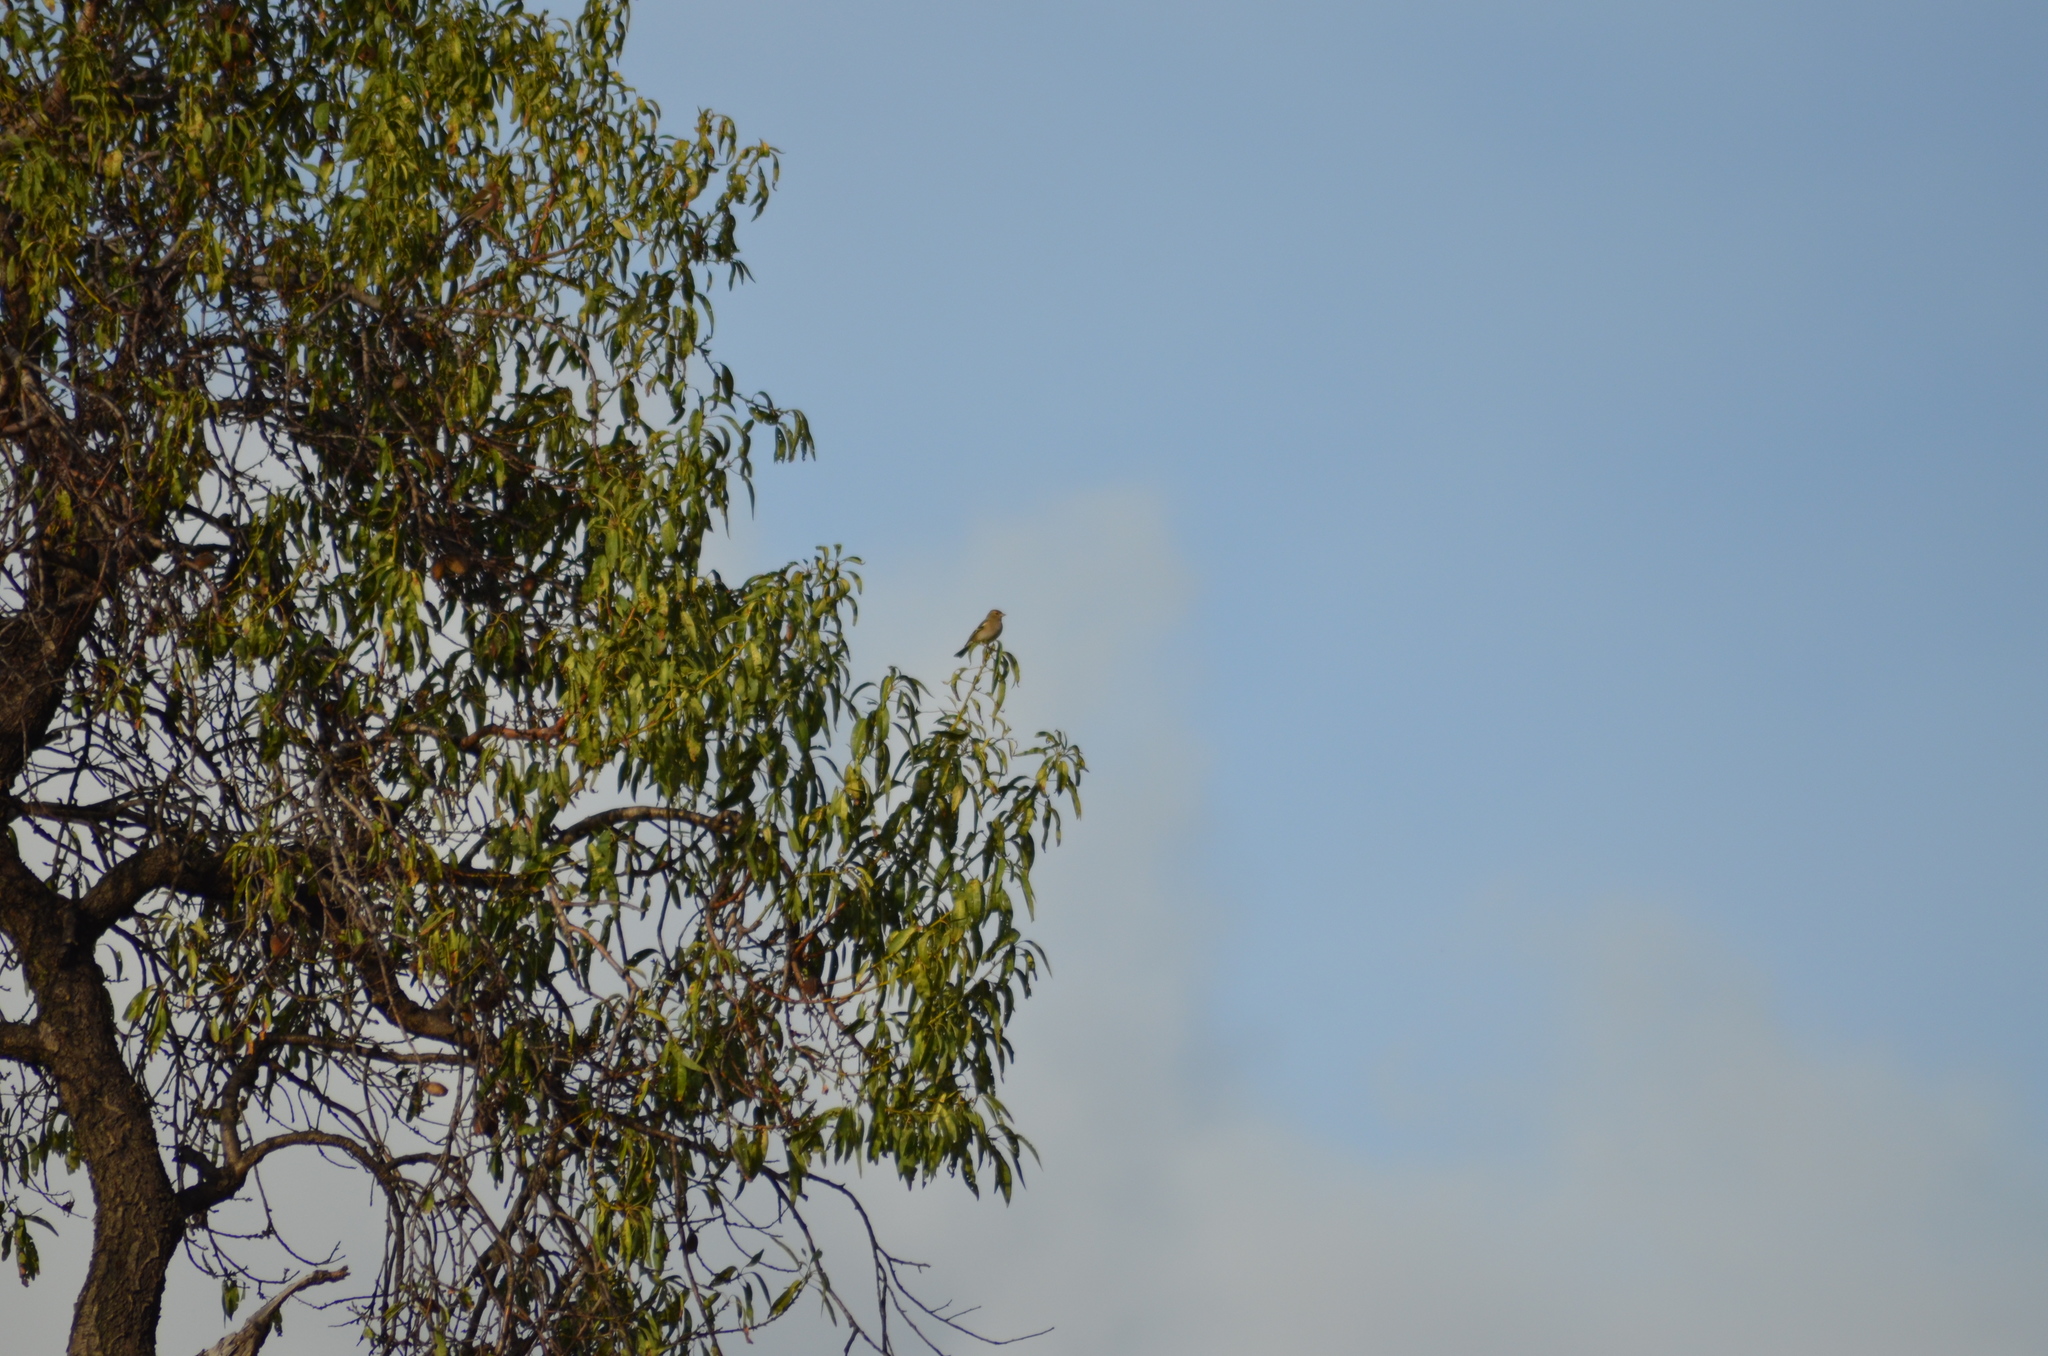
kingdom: Animalia
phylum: Chordata
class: Aves
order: Passeriformes
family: Fringillidae
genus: Fringilla
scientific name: Fringilla coelebs
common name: Common chaffinch
